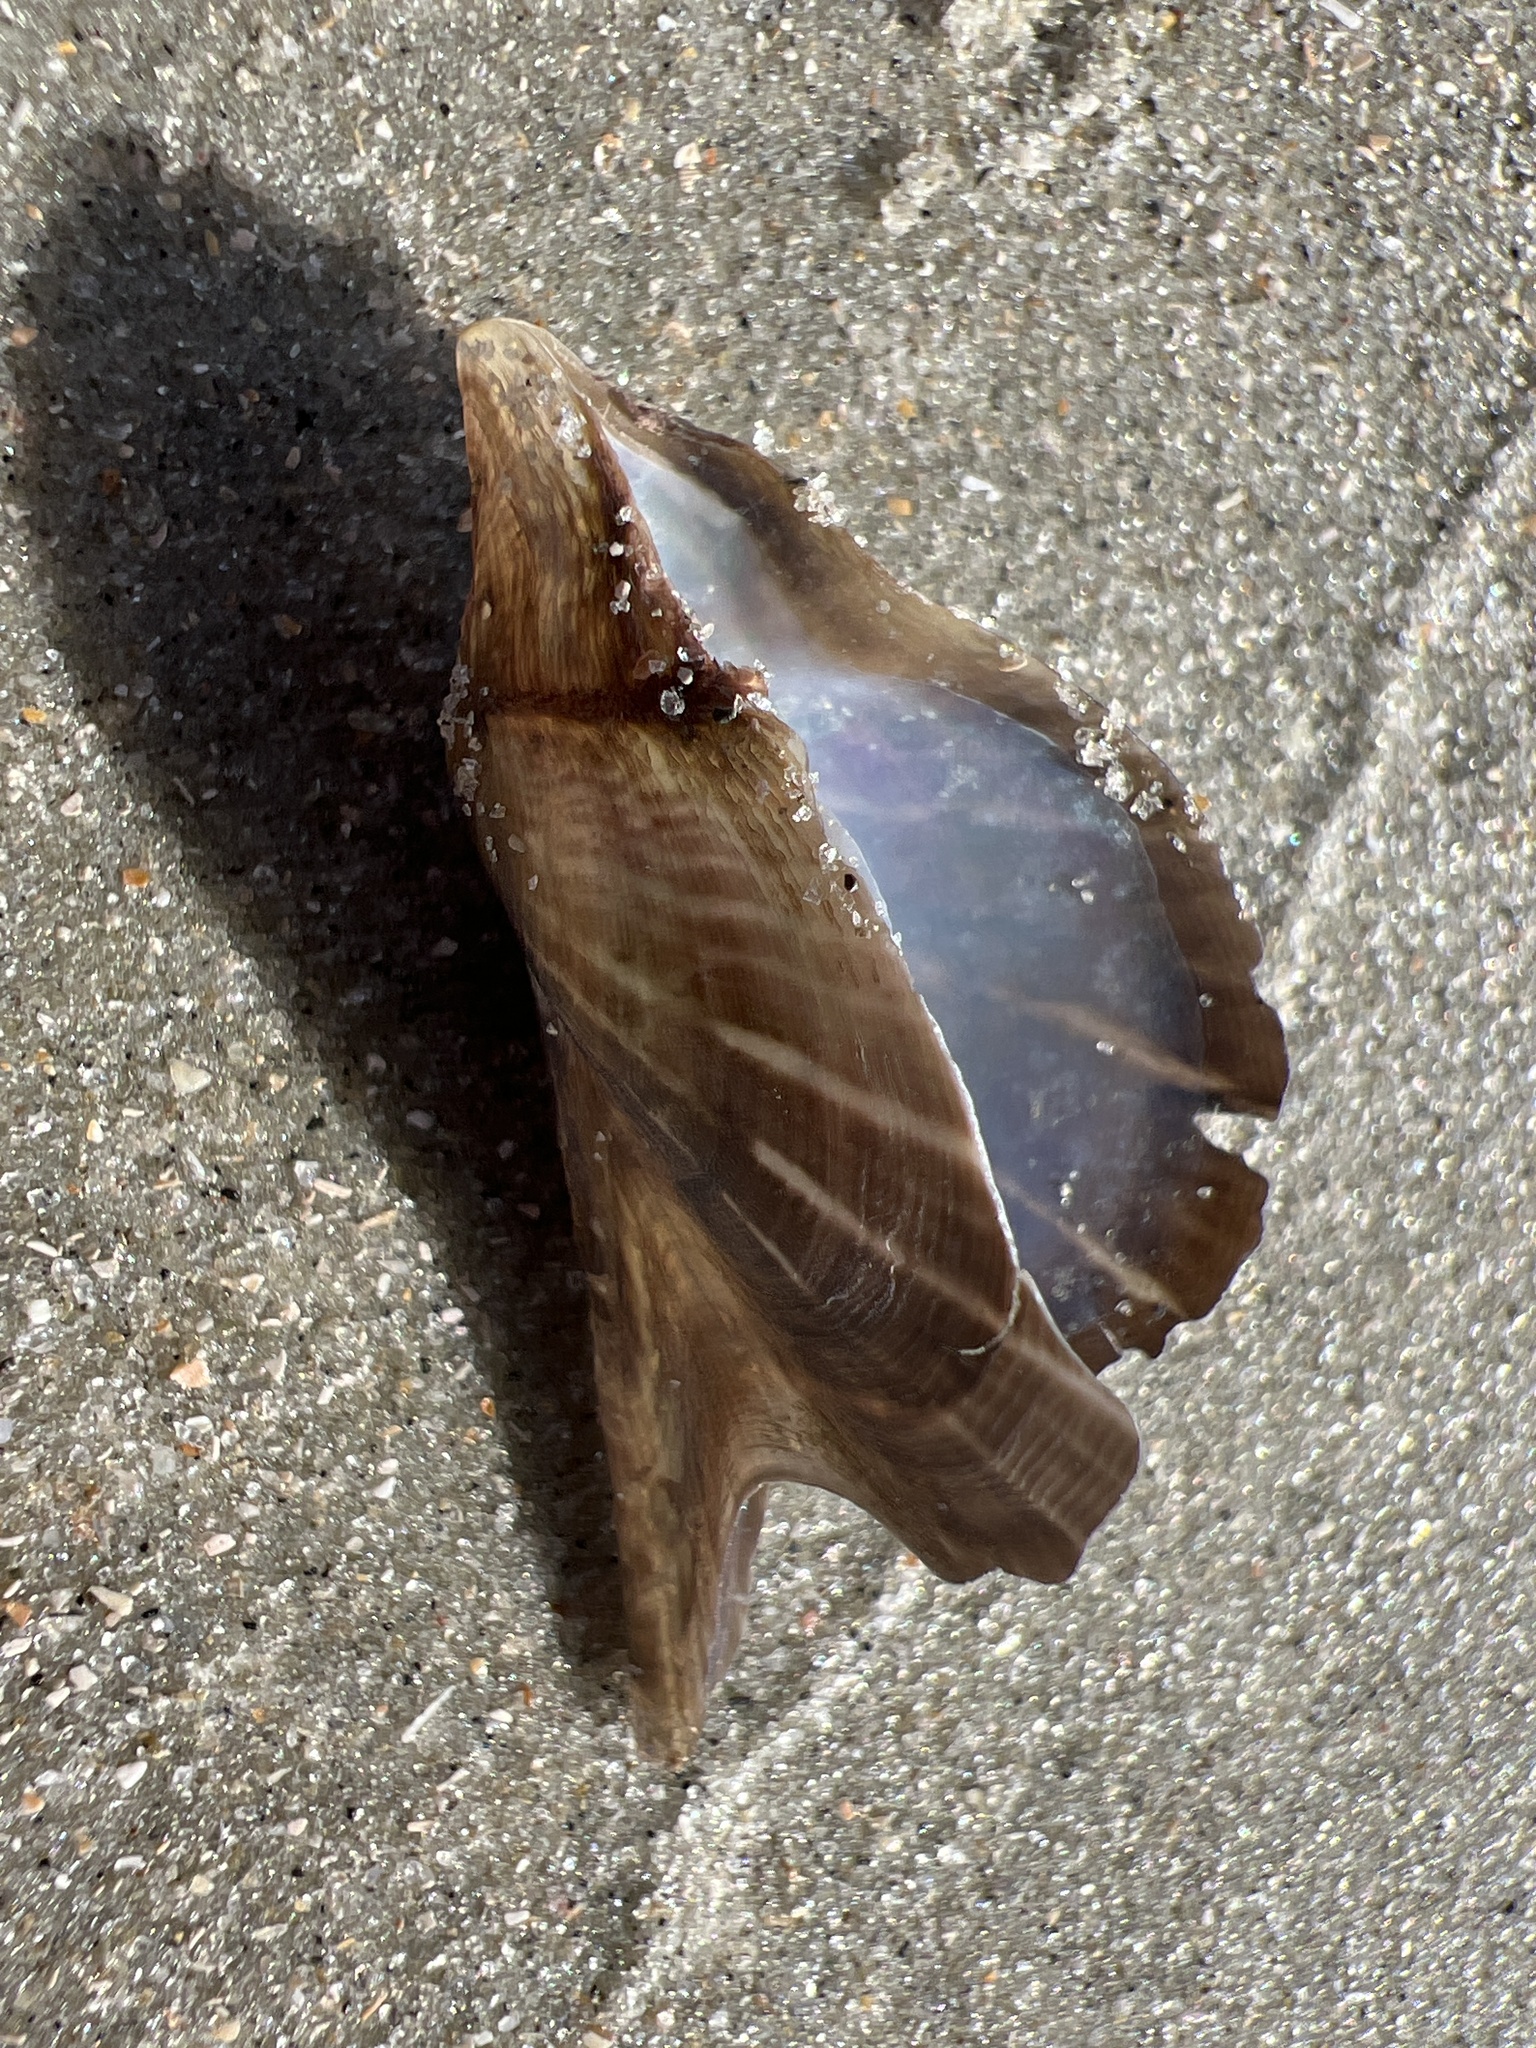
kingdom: Animalia
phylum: Mollusca
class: Bivalvia
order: Ostreida
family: Pteriidae
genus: Pteria
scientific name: Pteria colymbus
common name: Atlantic wing-oyster
